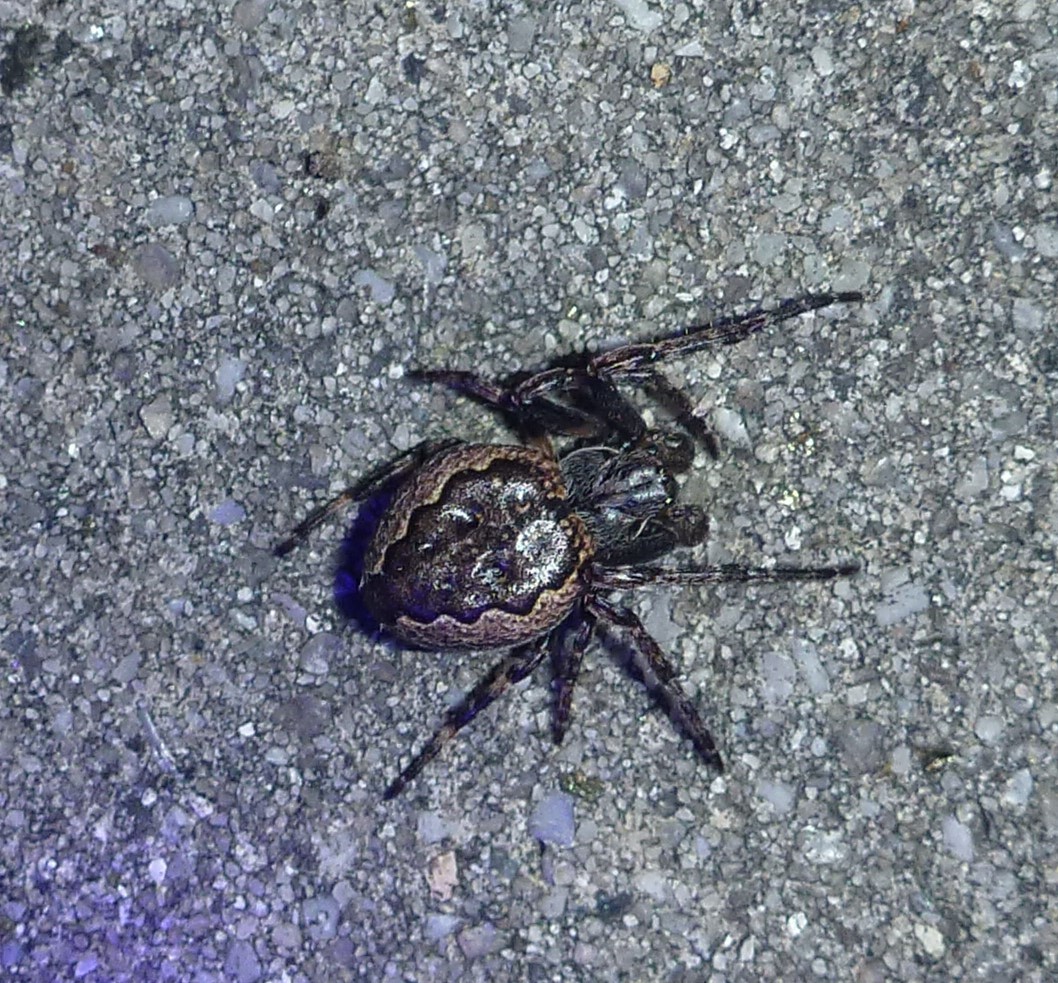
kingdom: Animalia
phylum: Arthropoda
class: Arachnida
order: Araneae
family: Araneidae
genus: Nuctenea
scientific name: Nuctenea umbratica
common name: Toad spider
